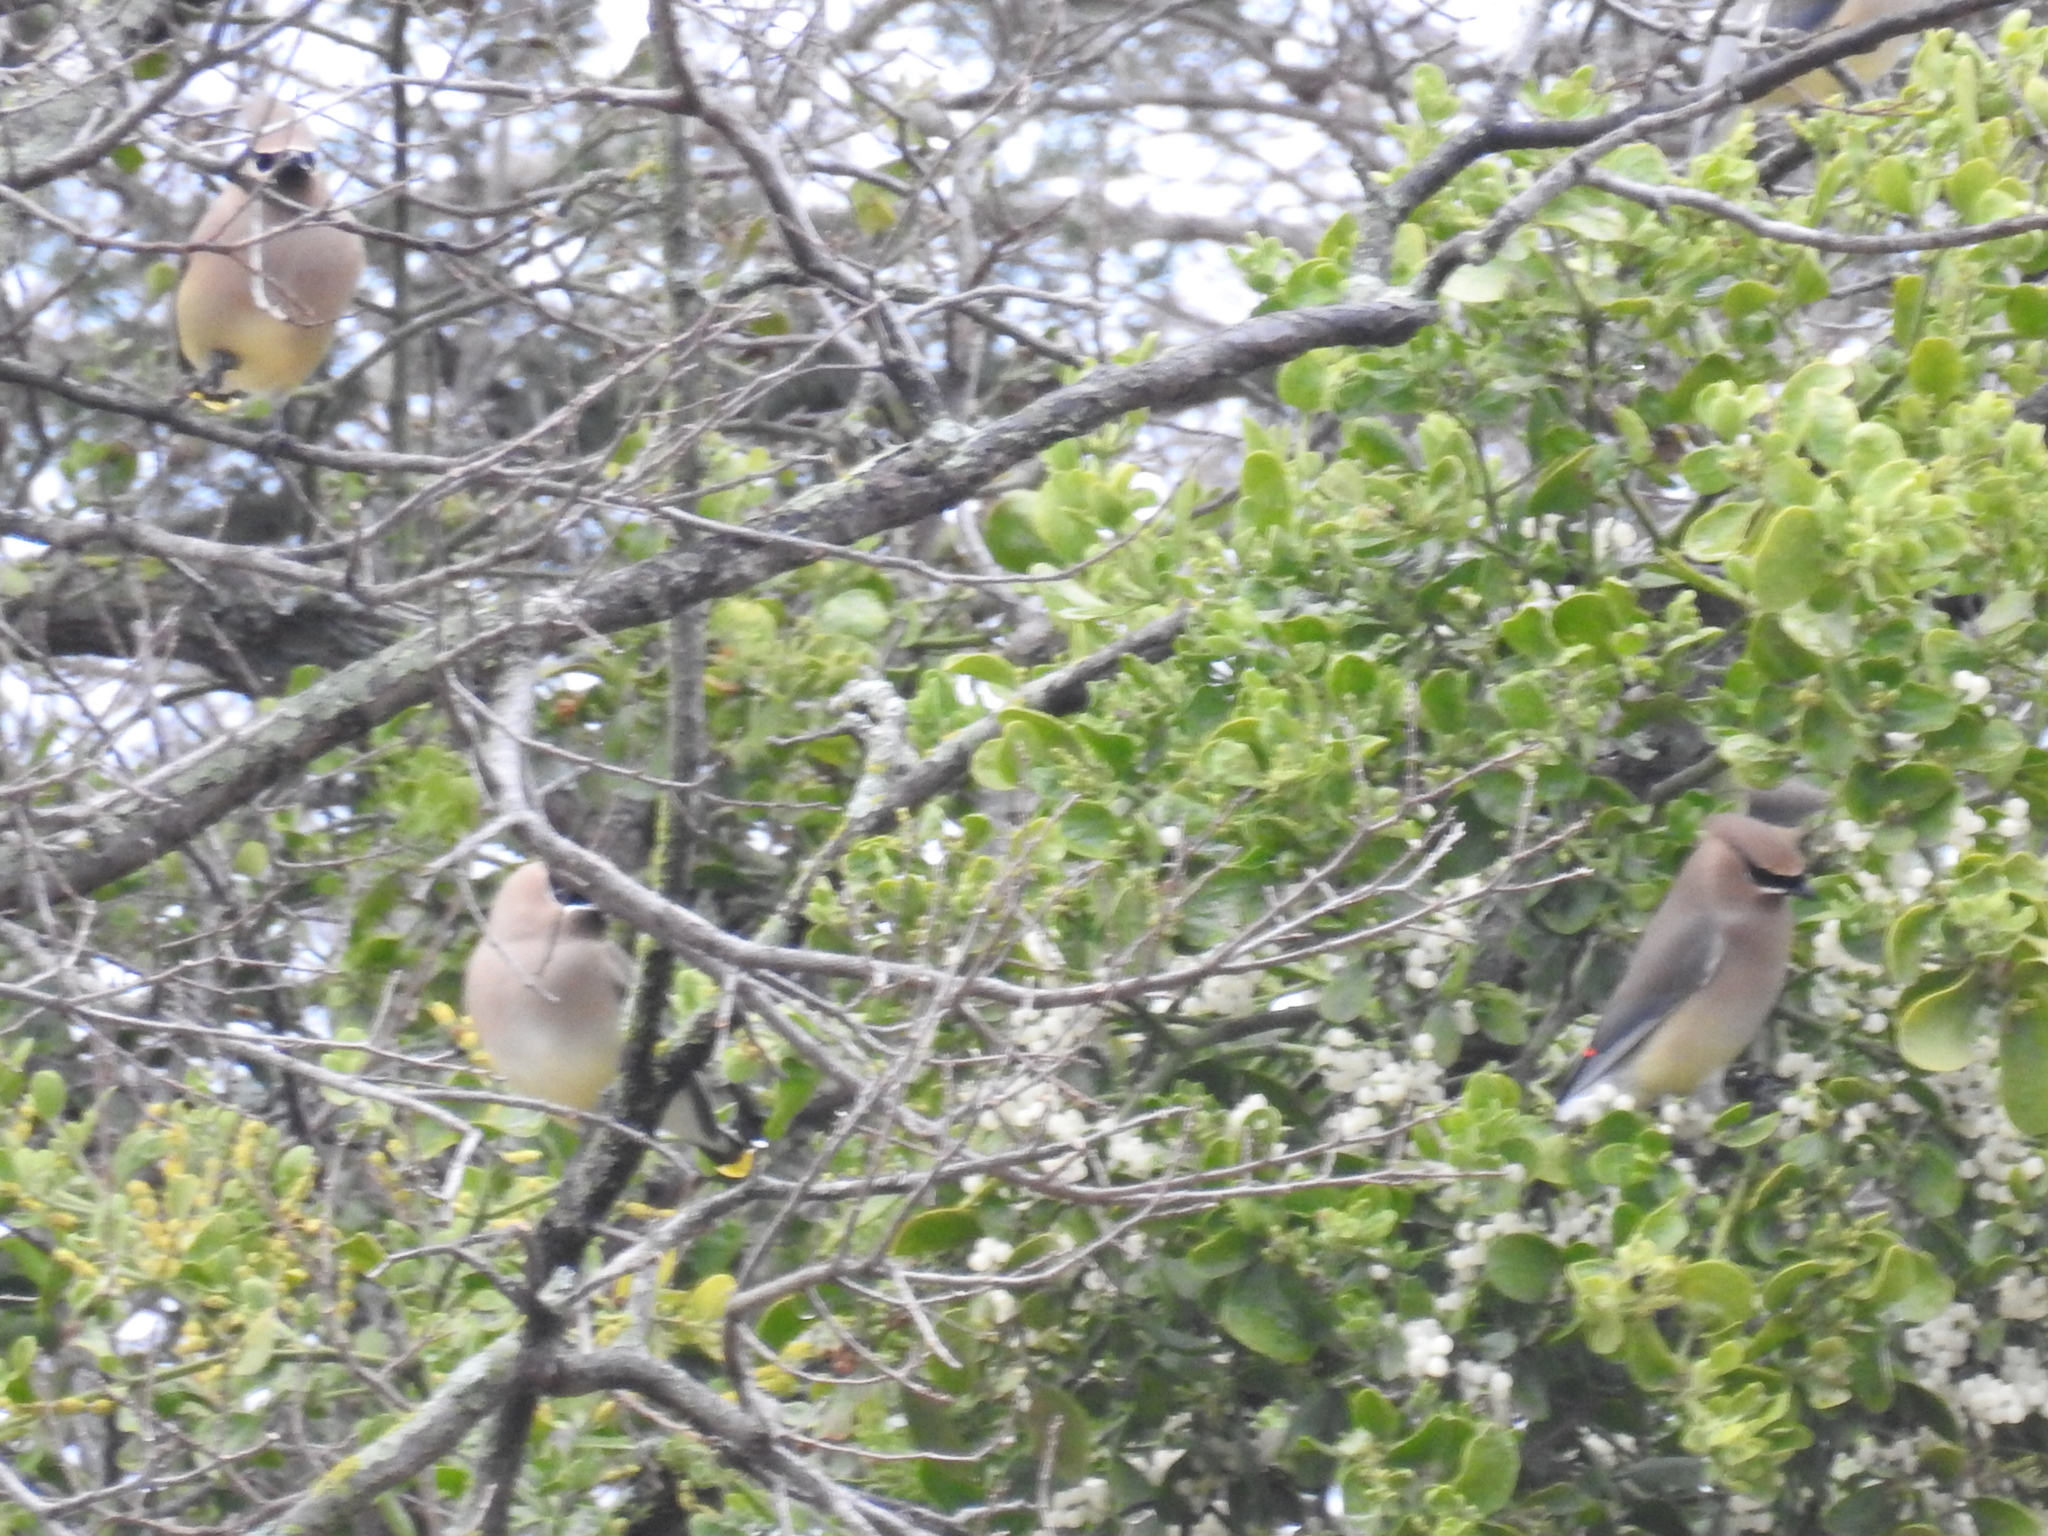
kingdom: Animalia
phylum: Chordata
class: Aves
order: Passeriformes
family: Bombycillidae
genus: Bombycilla
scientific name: Bombycilla cedrorum
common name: Cedar waxwing
